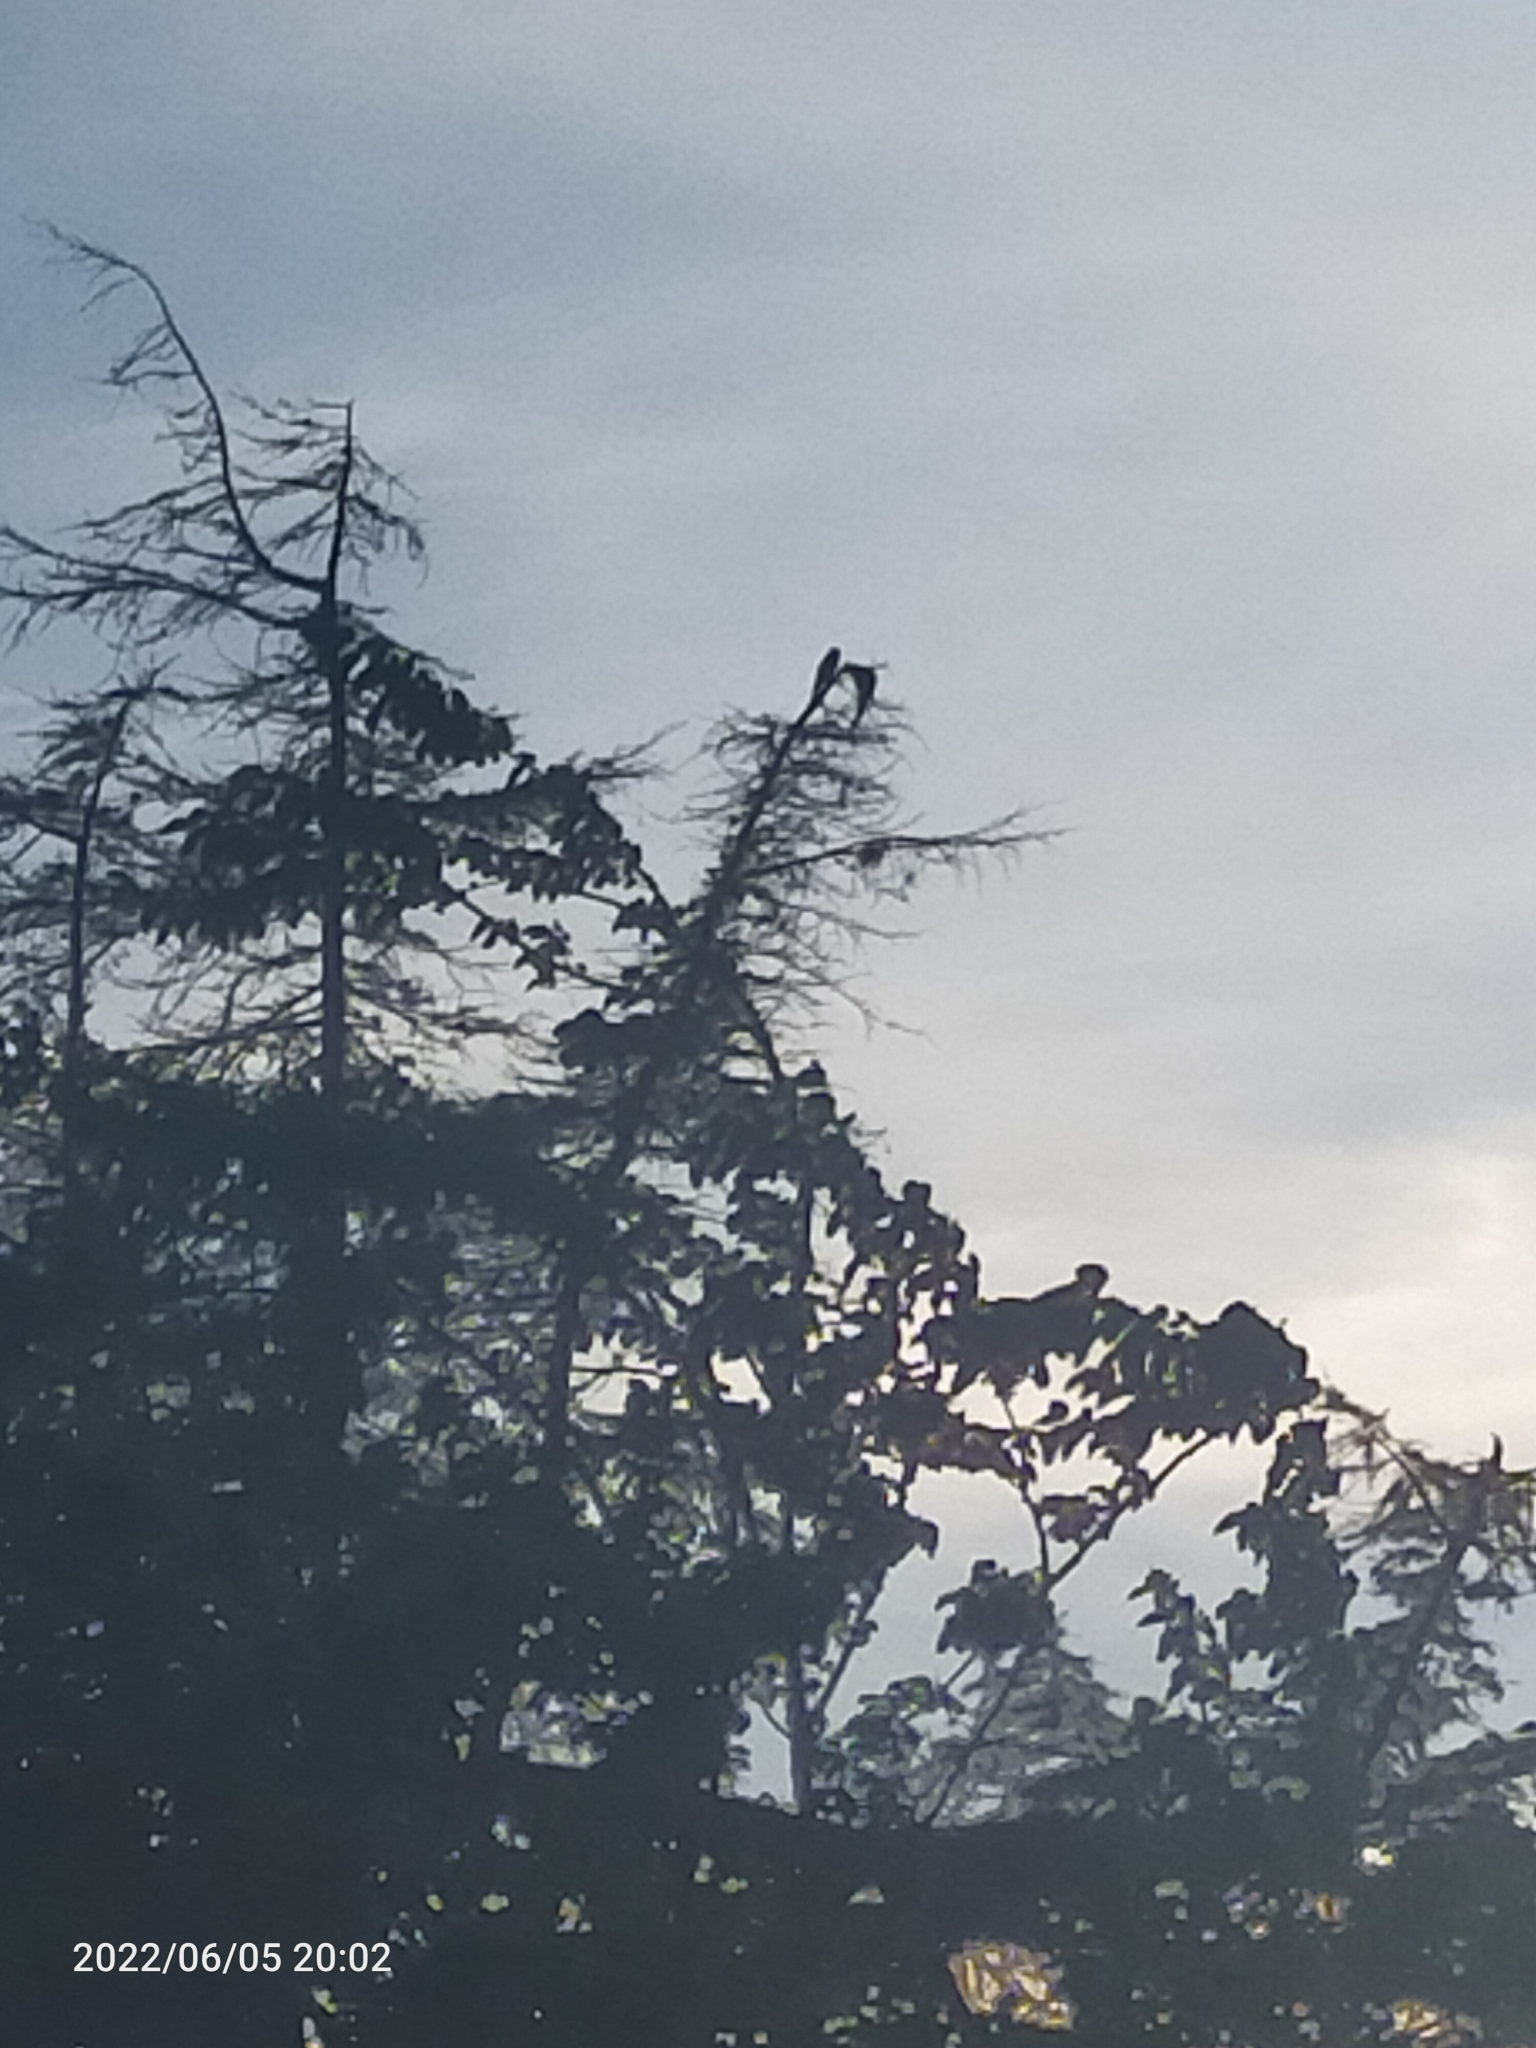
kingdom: Animalia
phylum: Chordata
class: Aves
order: Psittaciformes
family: Psittacidae
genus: Psittacula
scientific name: Psittacula krameri
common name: Rose-ringed parakeet
